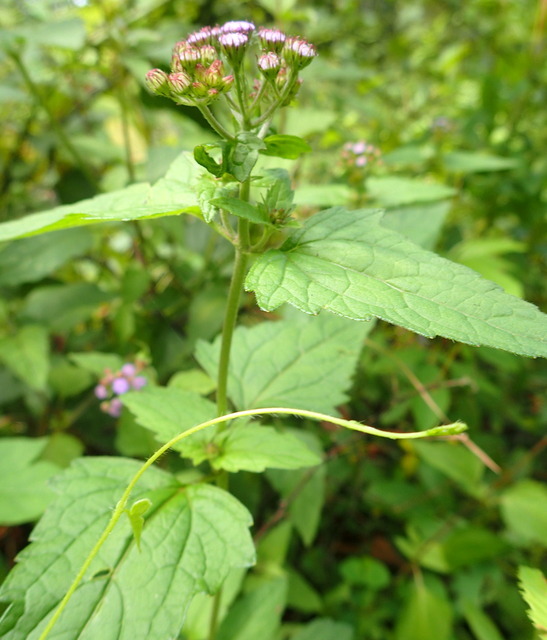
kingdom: Plantae
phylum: Tracheophyta
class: Magnoliopsida
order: Asterales
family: Asteraceae
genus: Conoclinium
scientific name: Conoclinium coelestinum
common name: Blue mistflower
